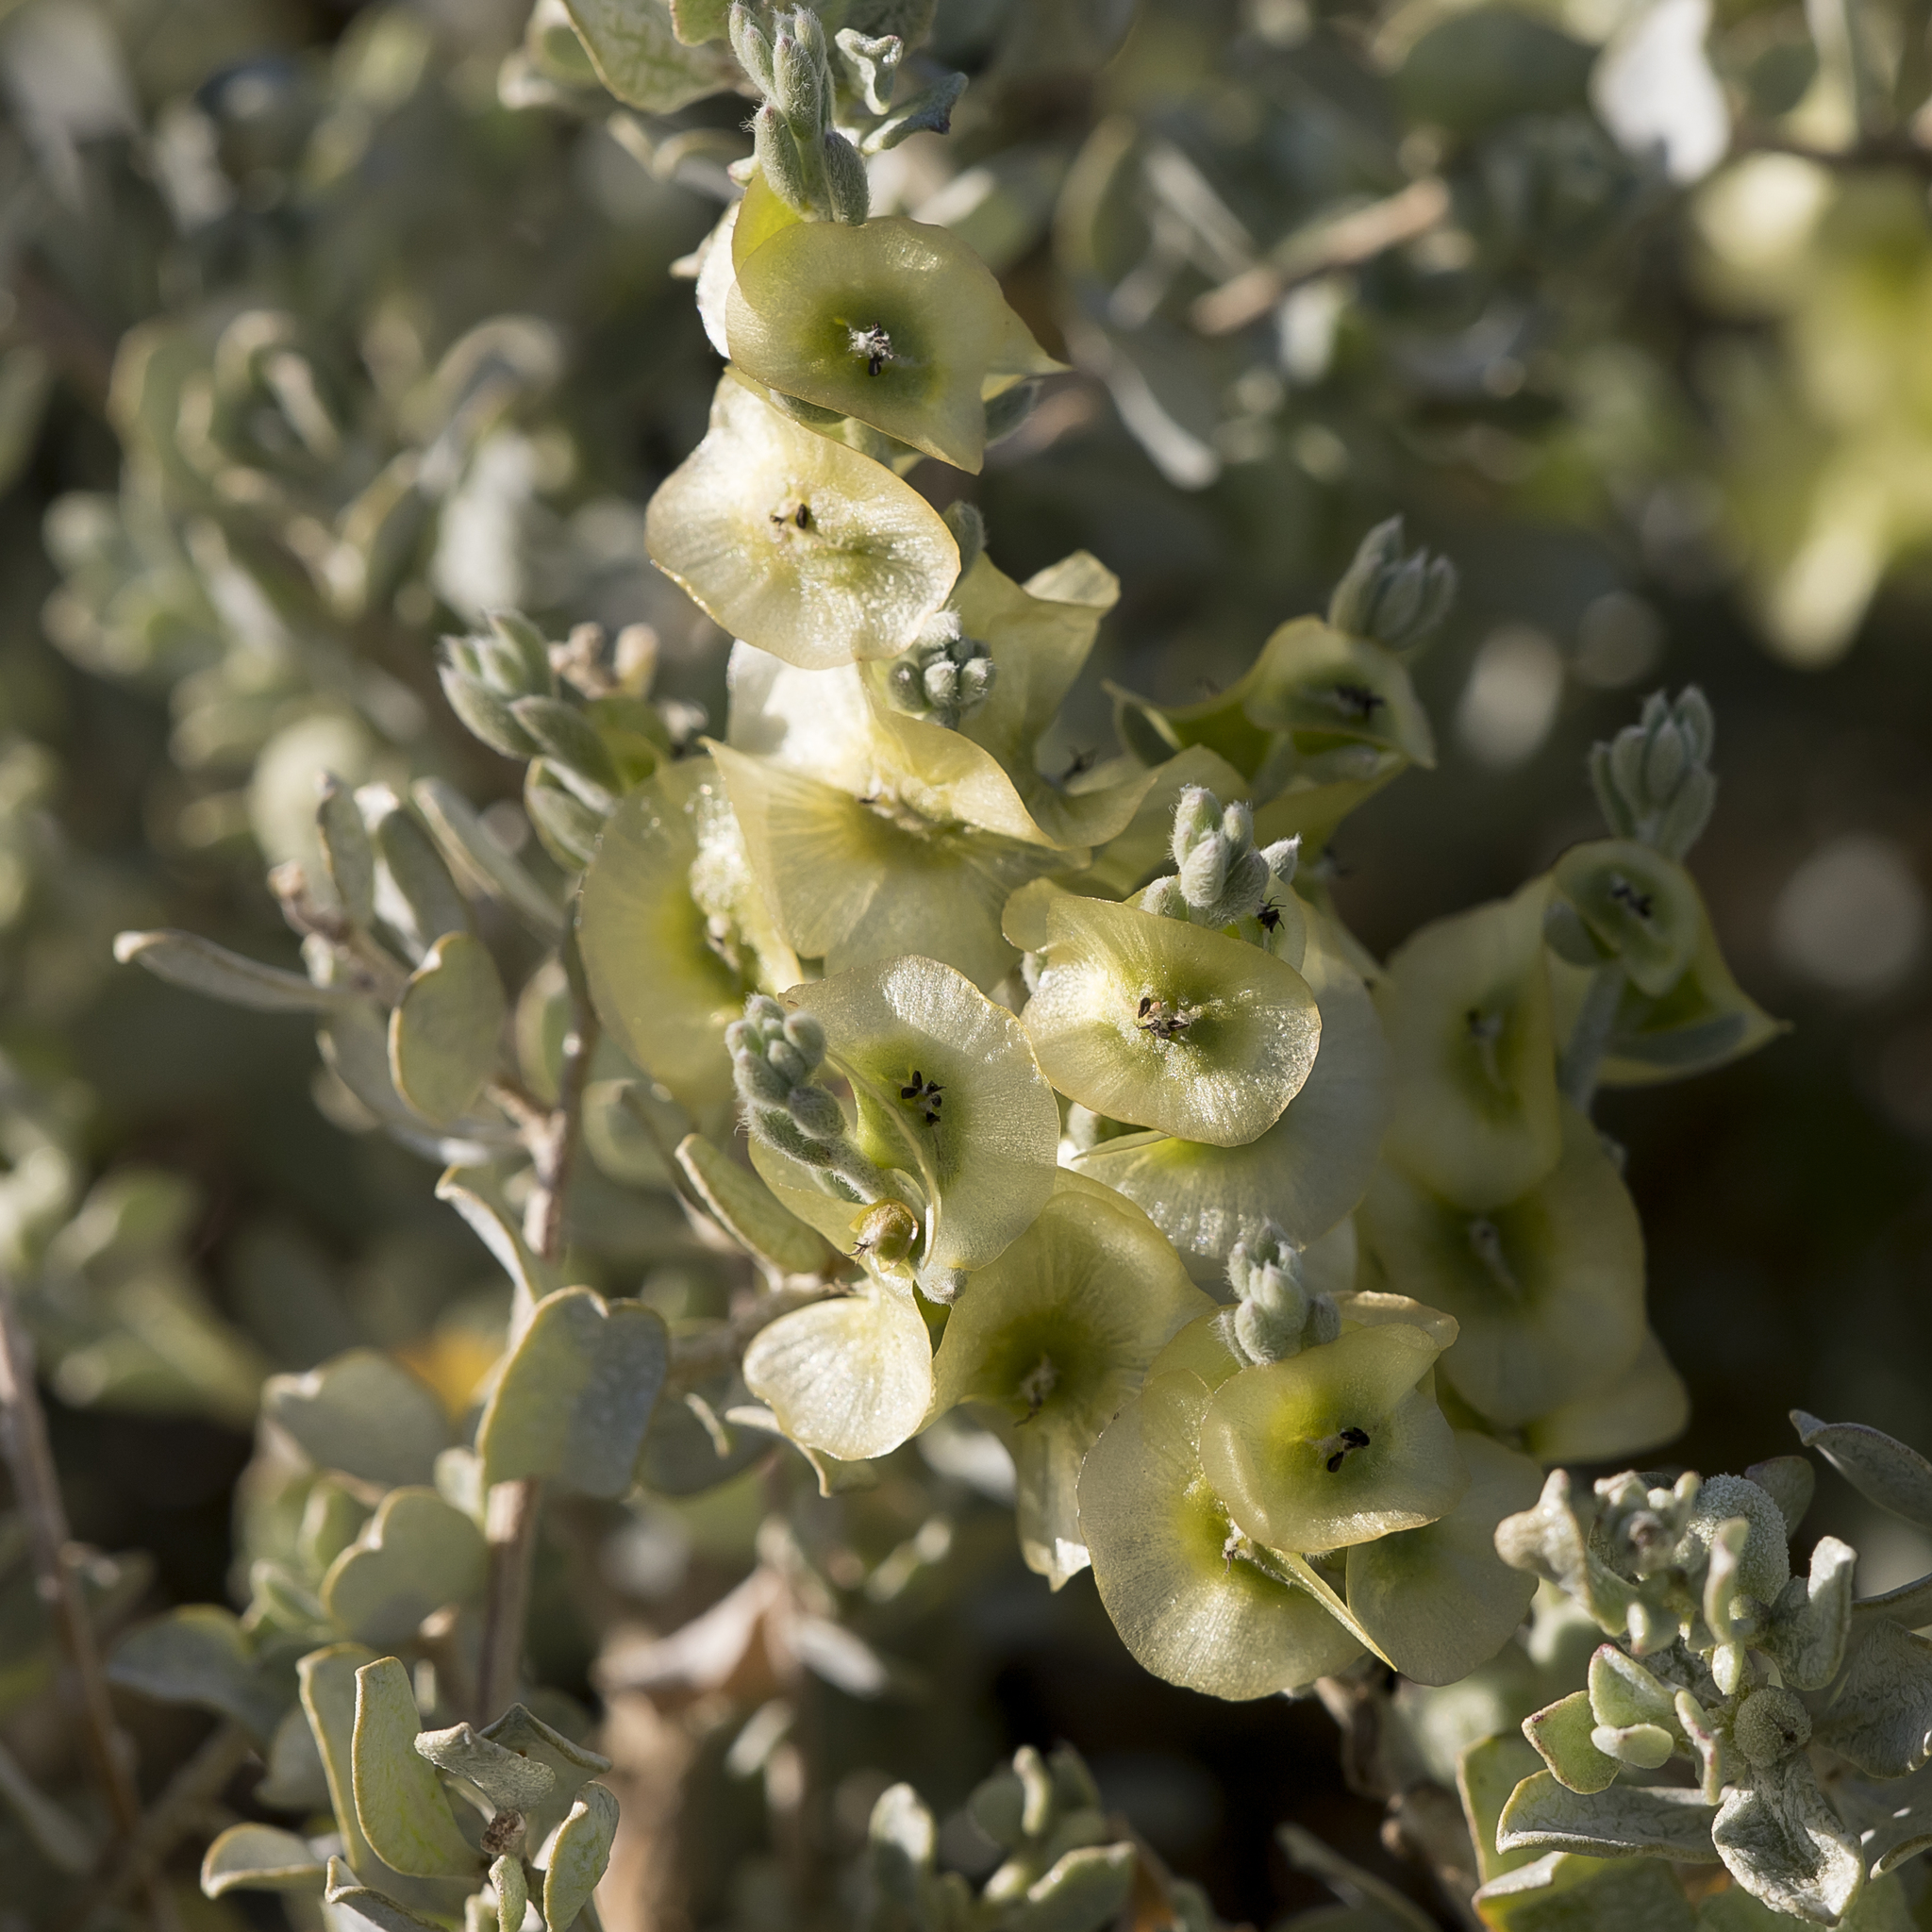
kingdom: Plantae
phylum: Tracheophyta
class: Magnoliopsida
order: Caryophyllales
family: Amaranthaceae
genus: Maireana
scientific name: Maireana turbinata
